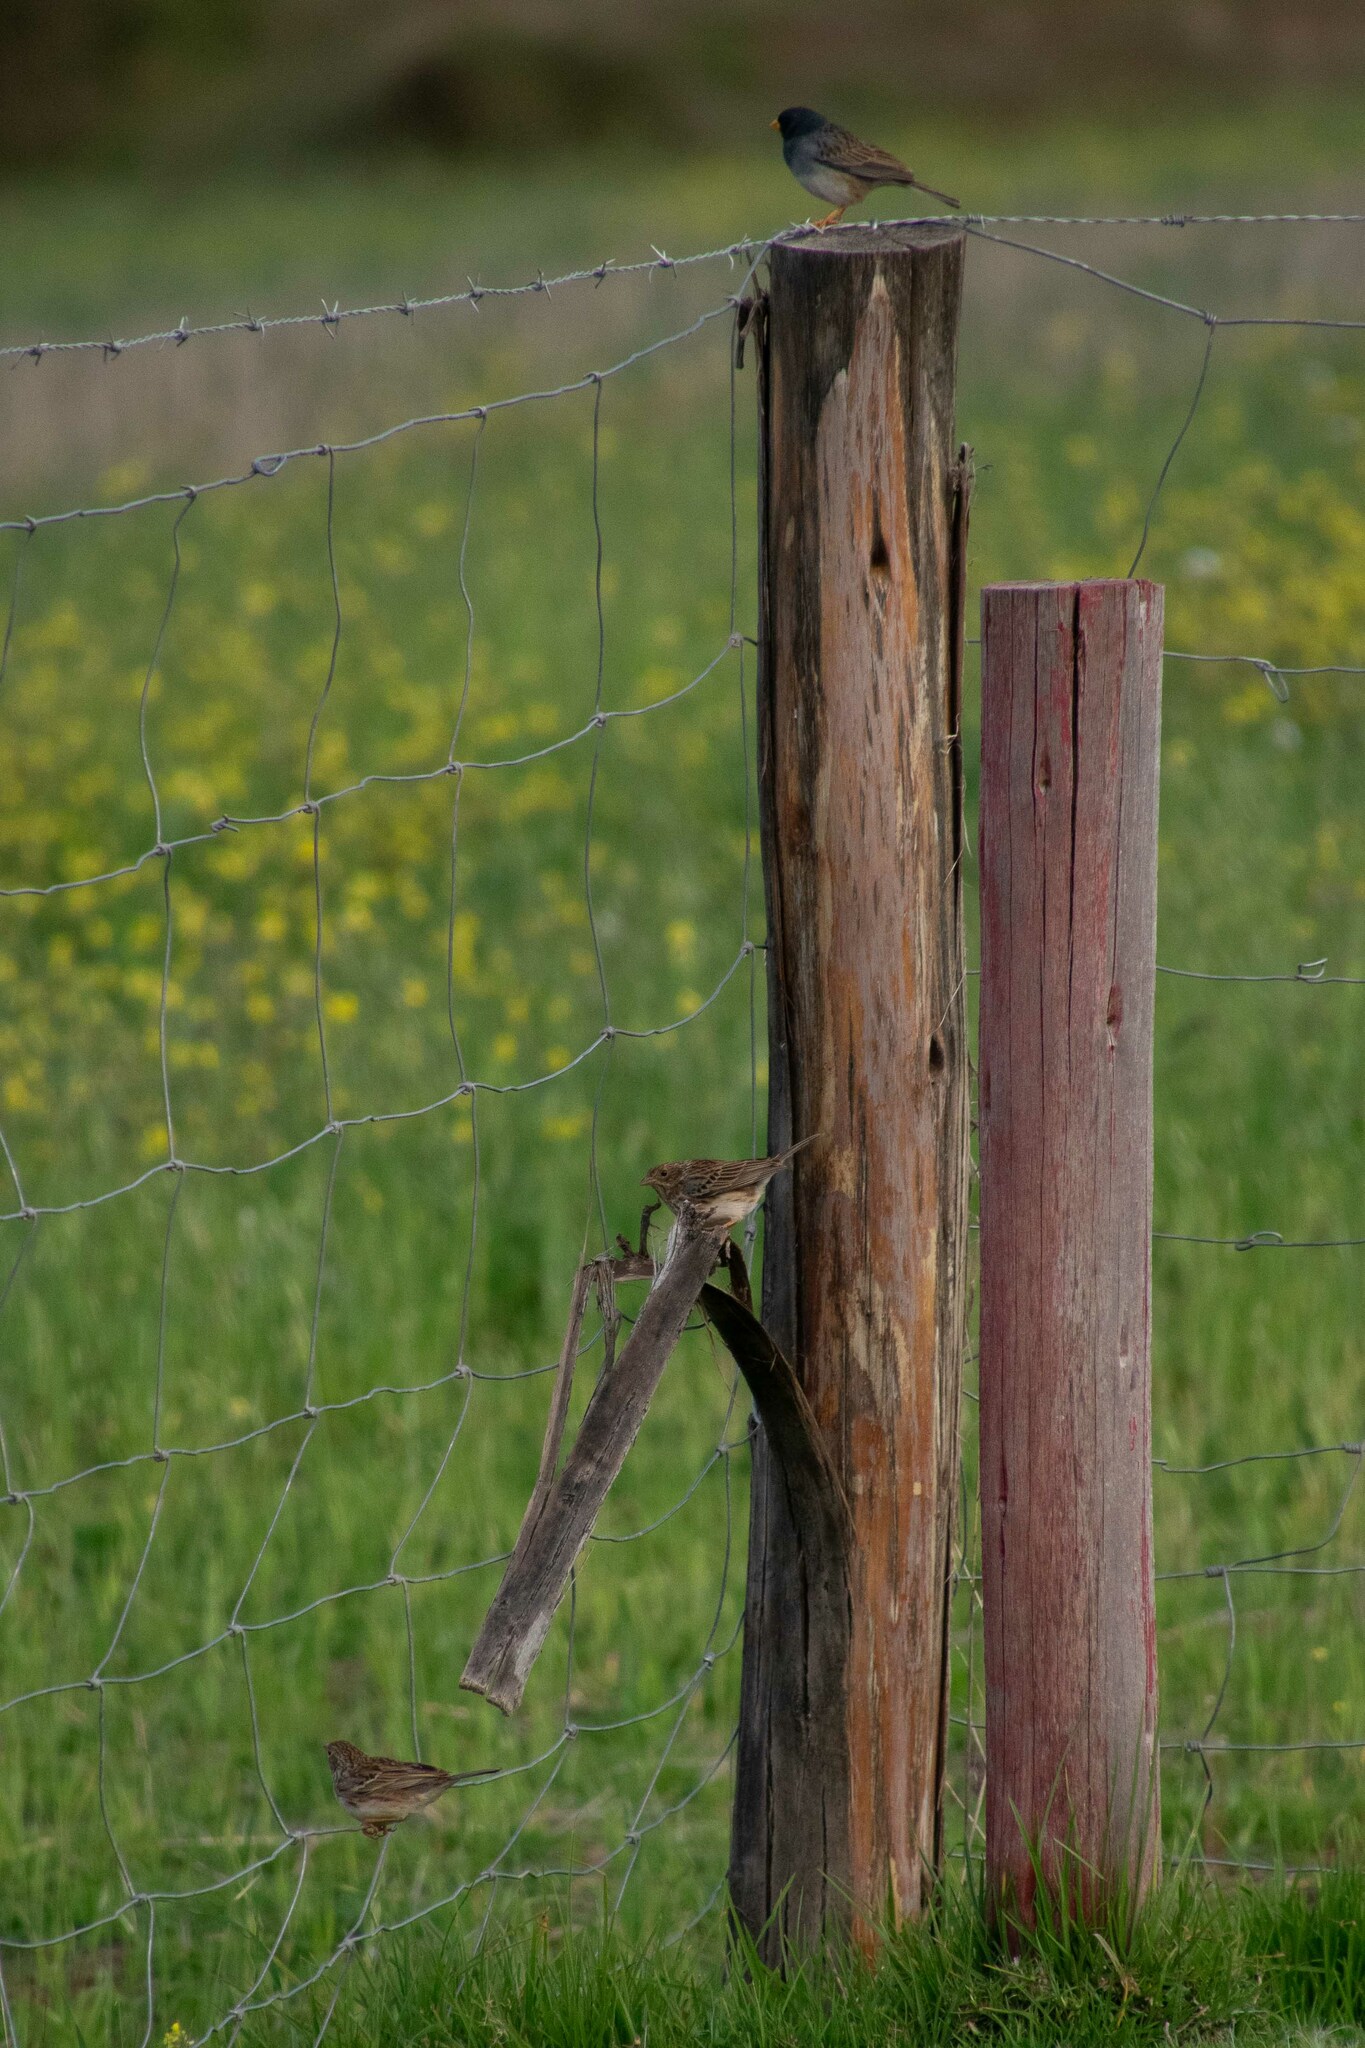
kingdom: Animalia
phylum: Chordata
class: Aves
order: Passeriformes
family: Thraupidae
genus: Porphyrospiza
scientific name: Porphyrospiza alaudina
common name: Band-tailed sierra finch
